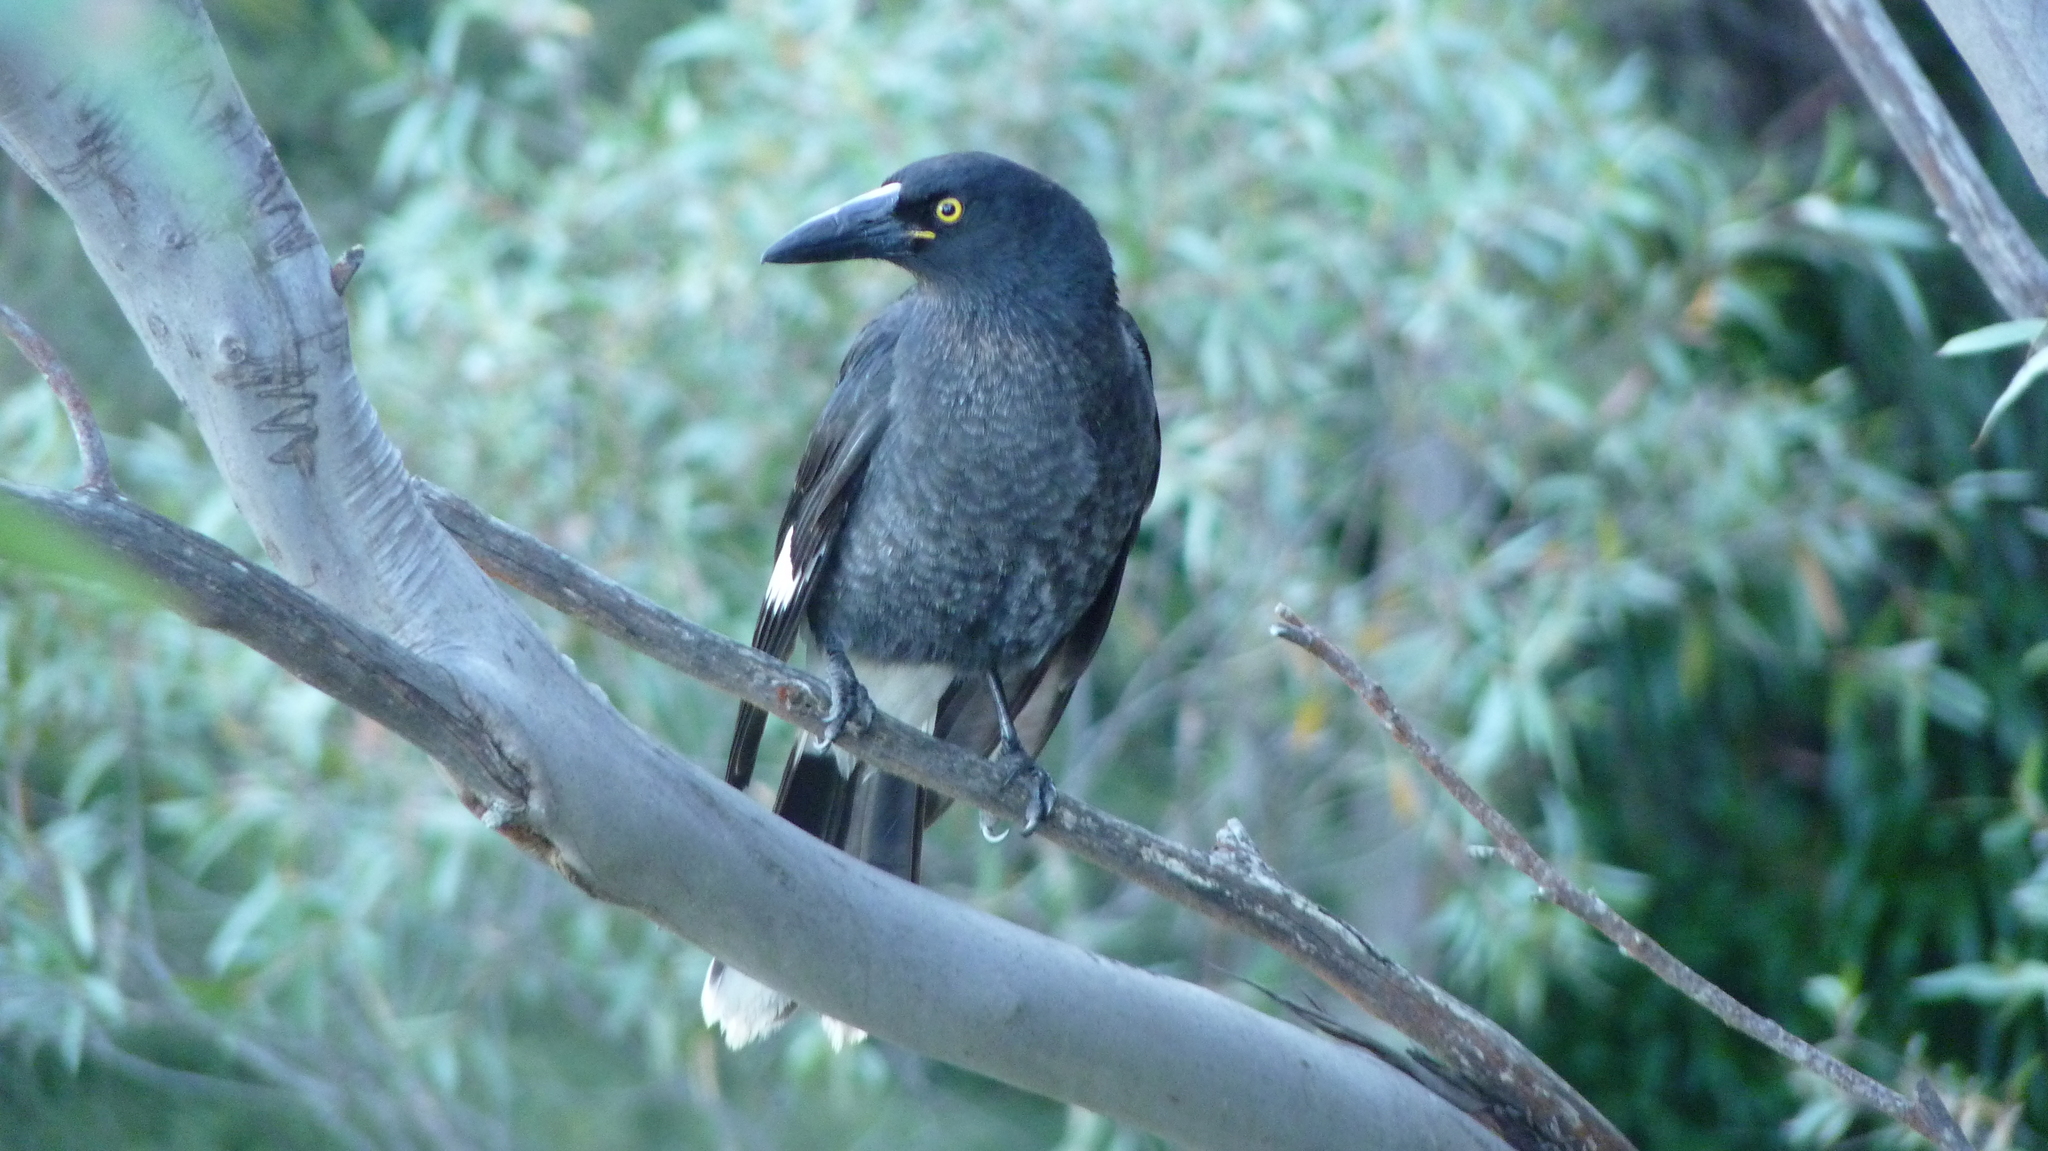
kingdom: Animalia
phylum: Chordata
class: Aves
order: Passeriformes
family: Cracticidae
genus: Strepera
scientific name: Strepera graculina
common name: Pied currawong
